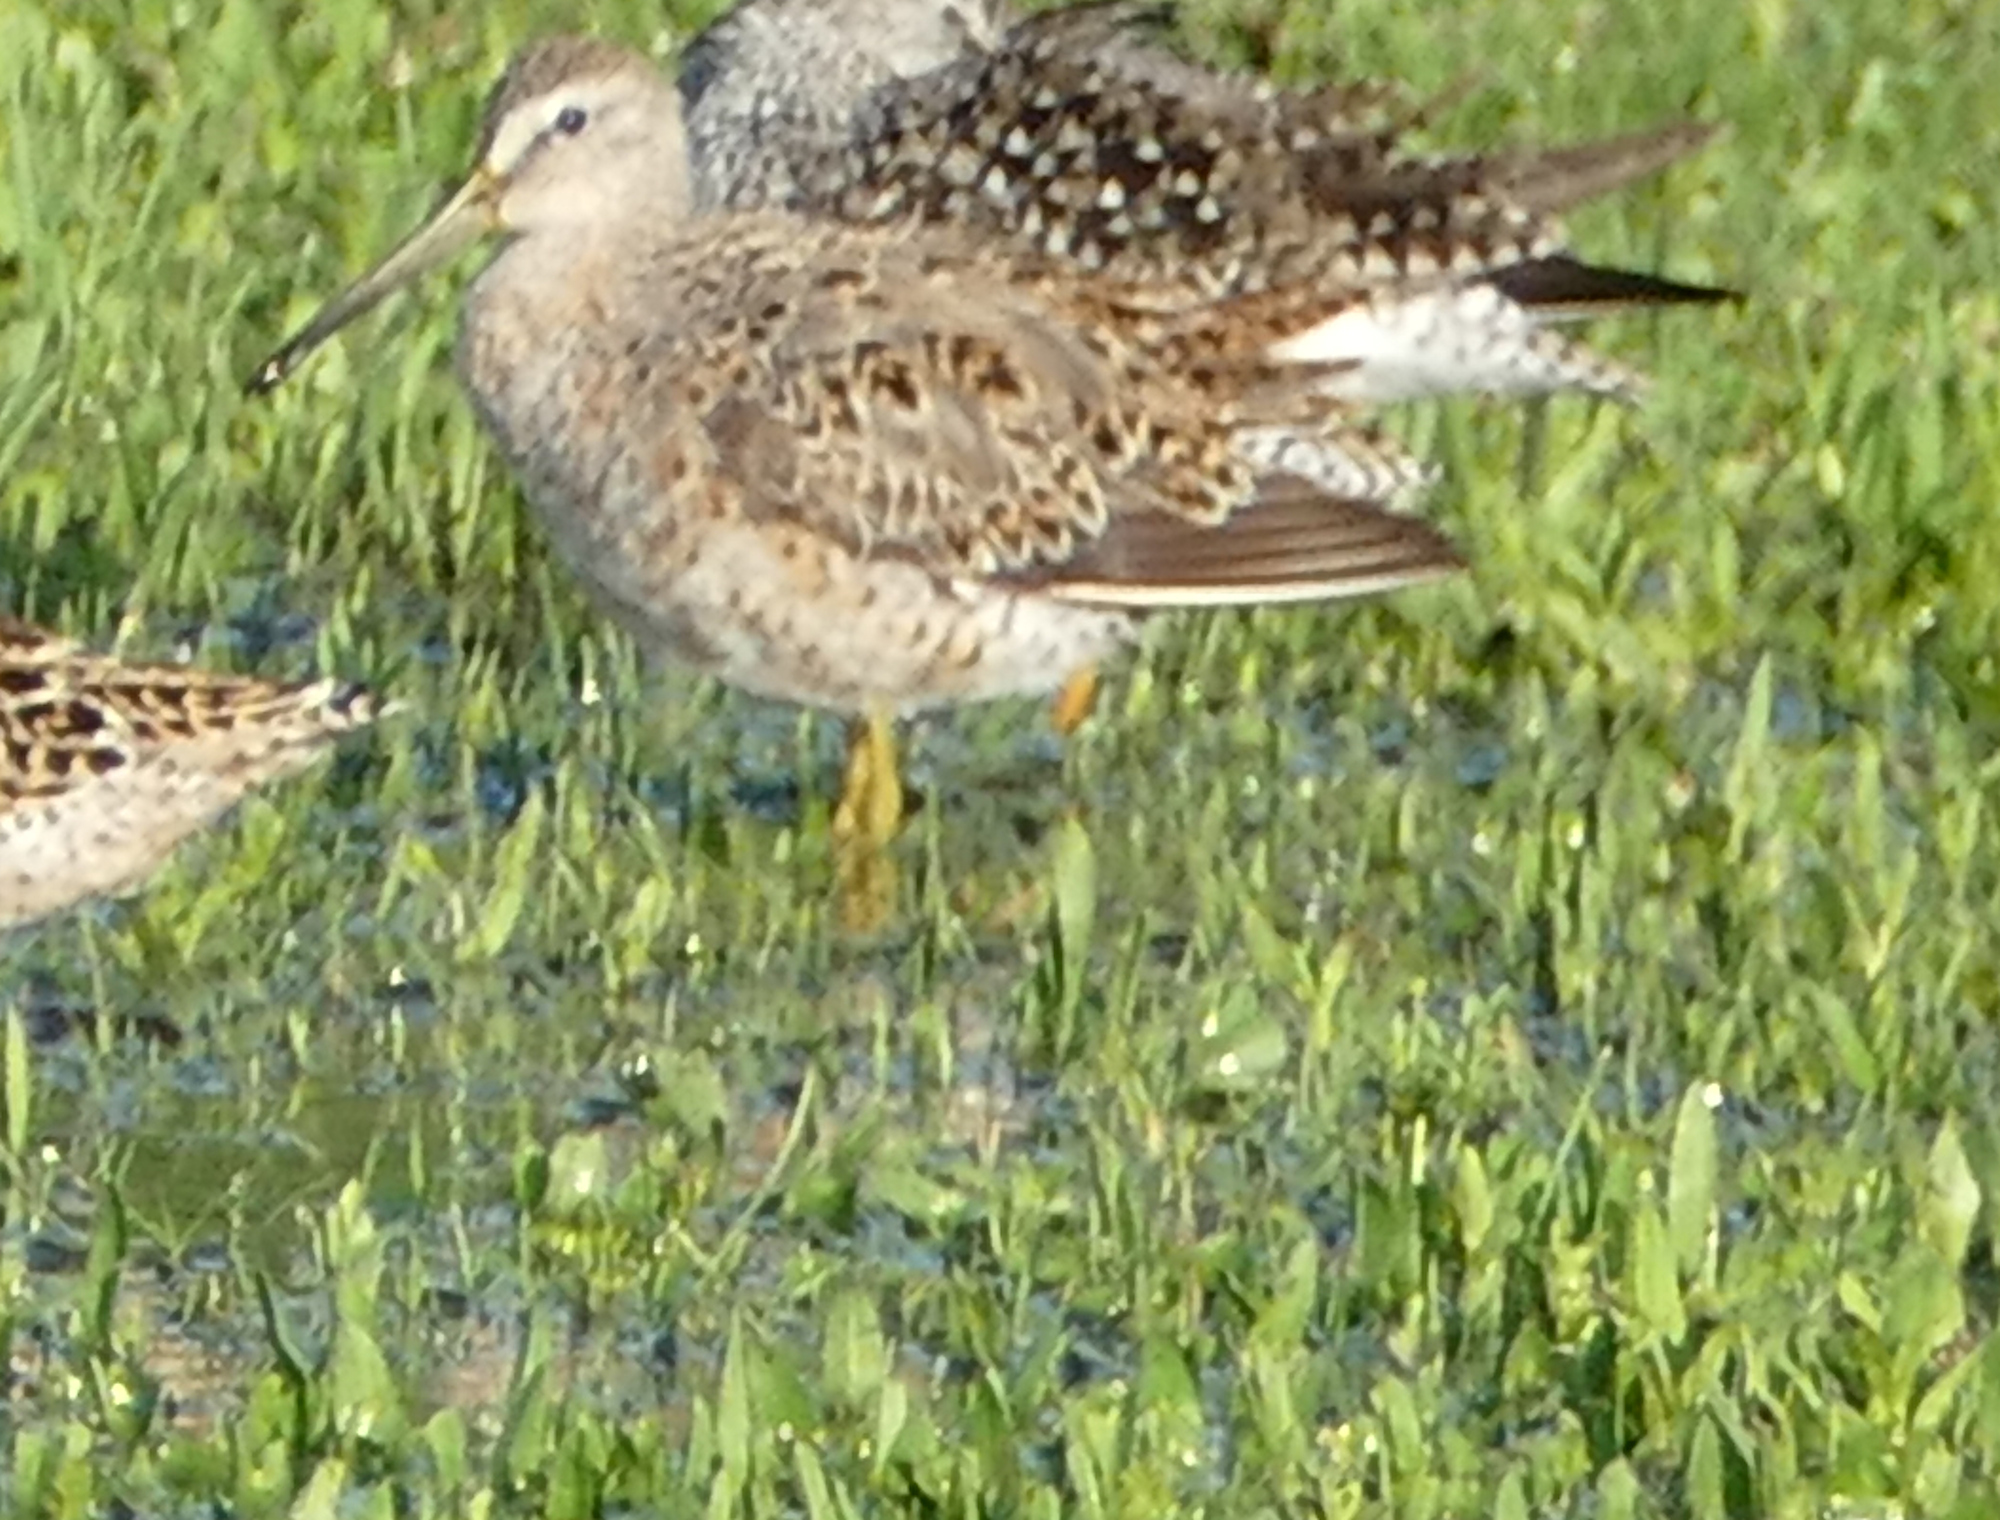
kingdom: Animalia
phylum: Chordata
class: Aves
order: Charadriiformes
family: Scolopacidae
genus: Limnodromus
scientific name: Limnodromus griseus
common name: Short-billed dowitcher
